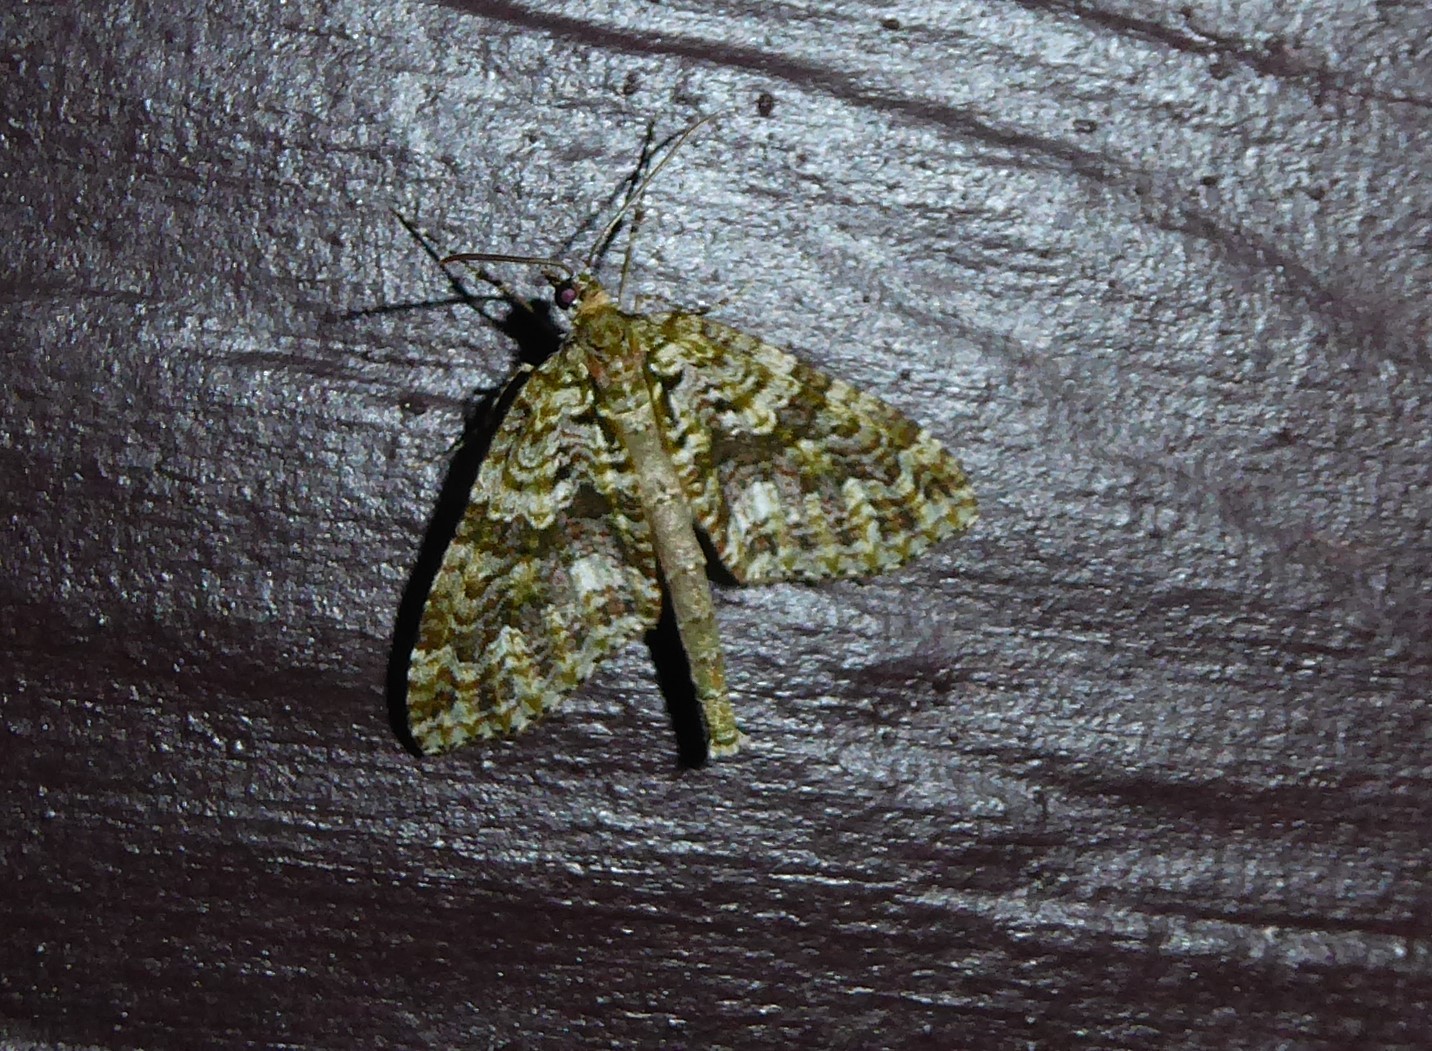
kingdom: Animalia
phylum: Arthropoda
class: Insecta
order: Lepidoptera
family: Geometridae
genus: Tatosoma
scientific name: Tatosoma agrionata
